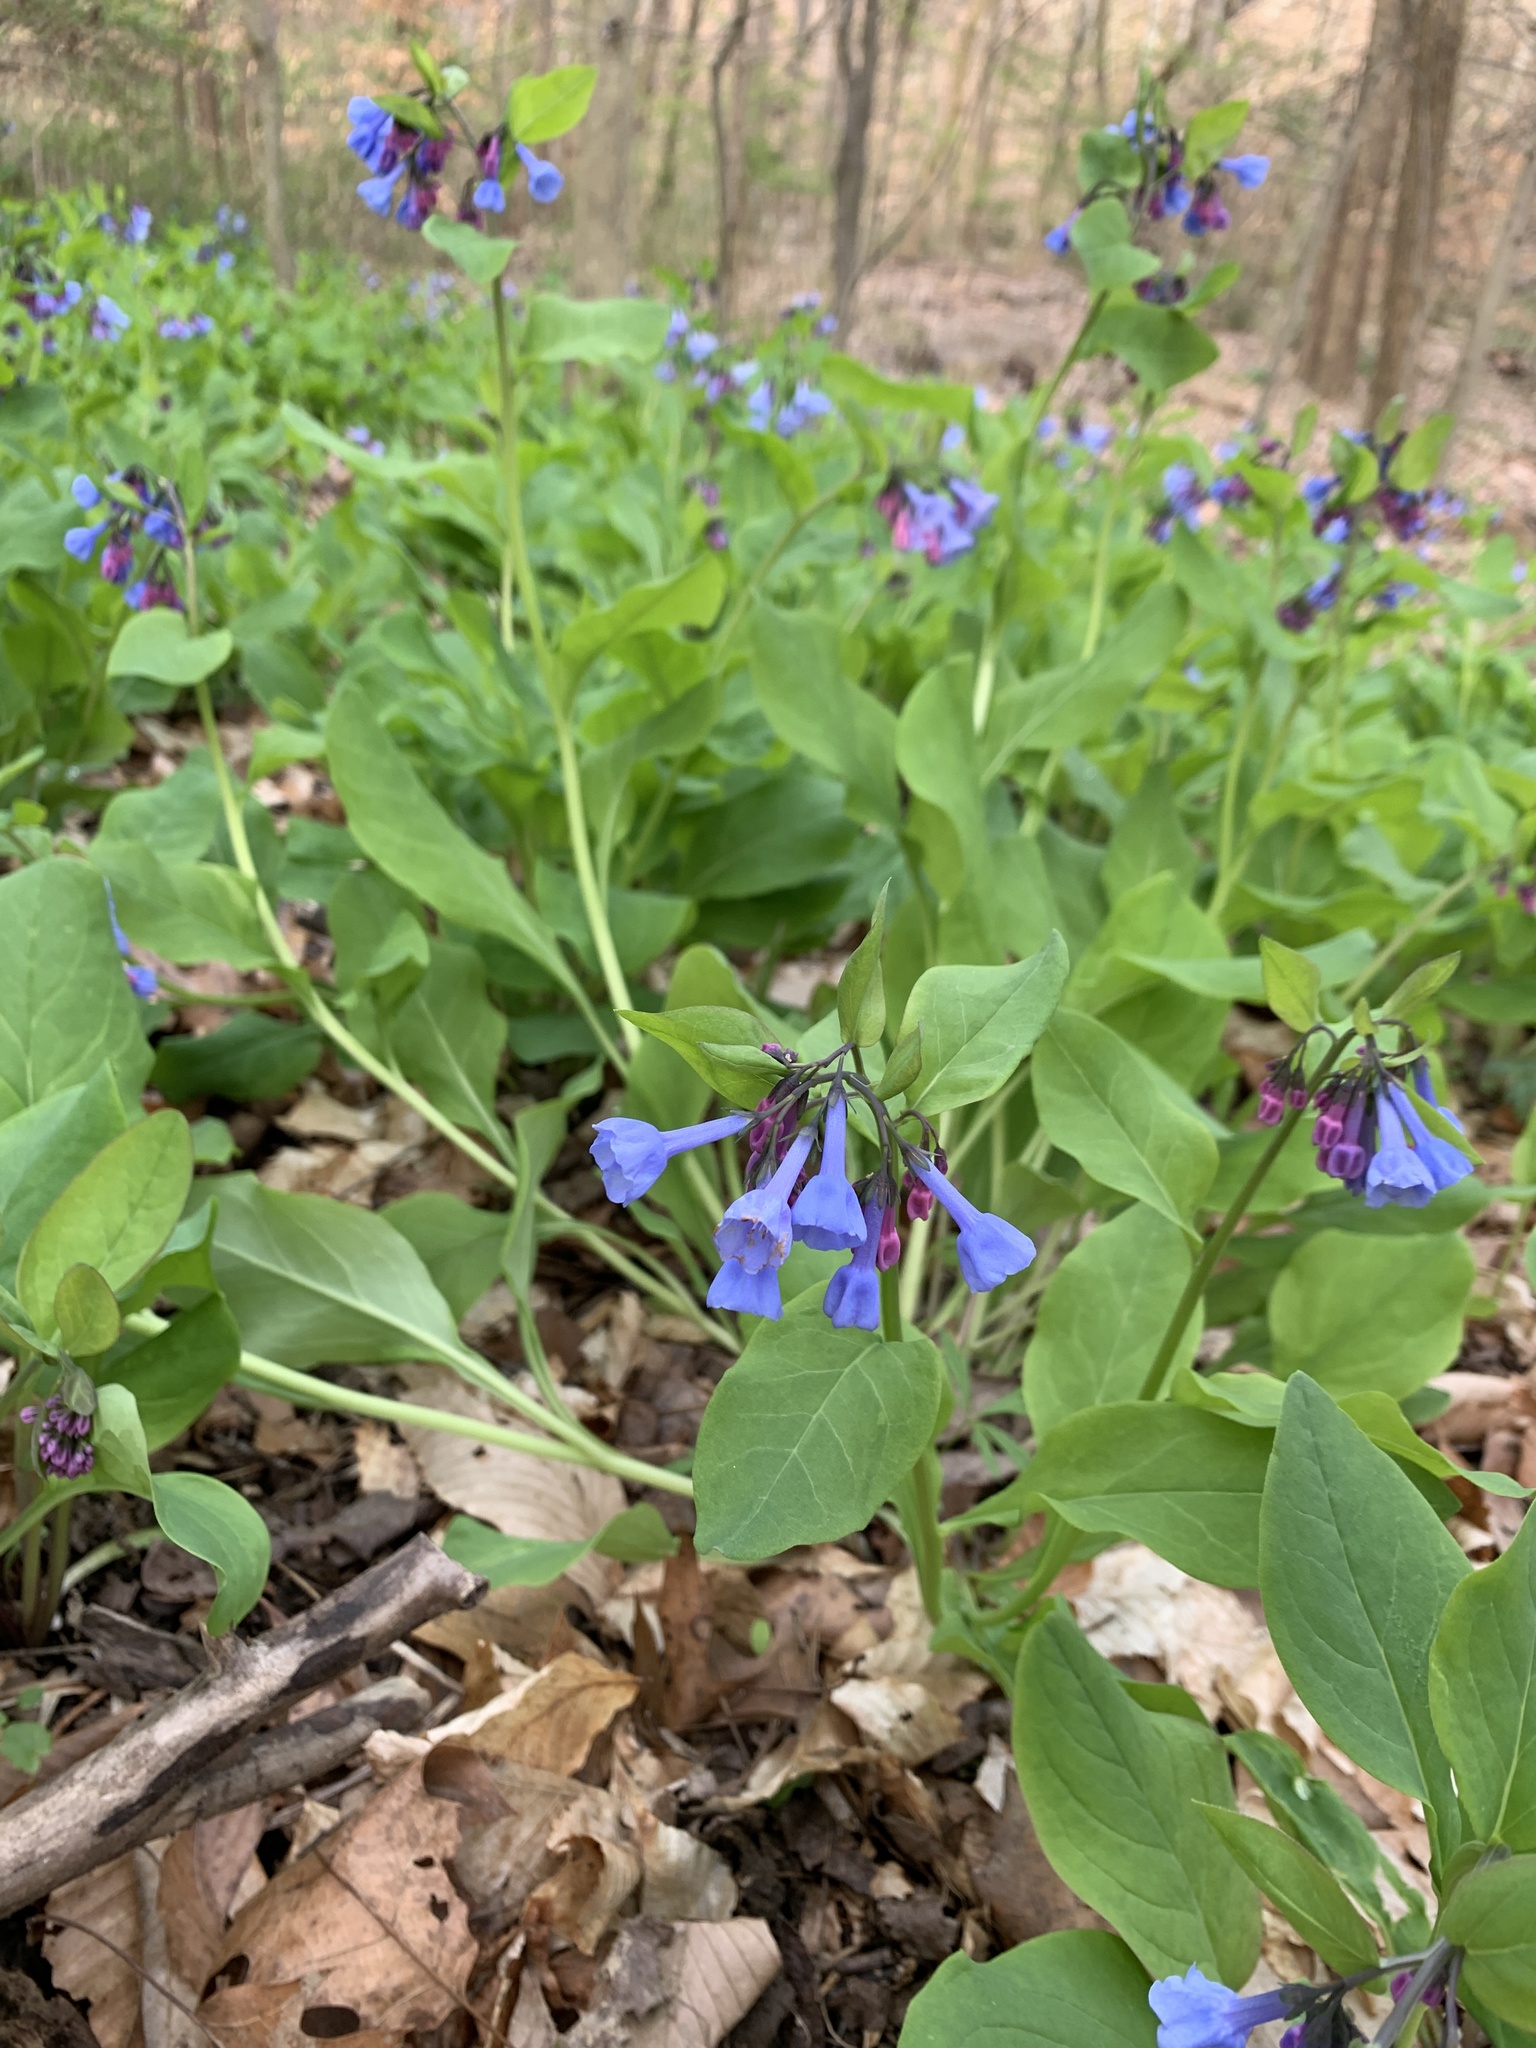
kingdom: Plantae
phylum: Tracheophyta
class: Magnoliopsida
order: Boraginales
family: Boraginaceae
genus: Mertensia
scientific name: Mertensia virginica
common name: Virginia bluebells
